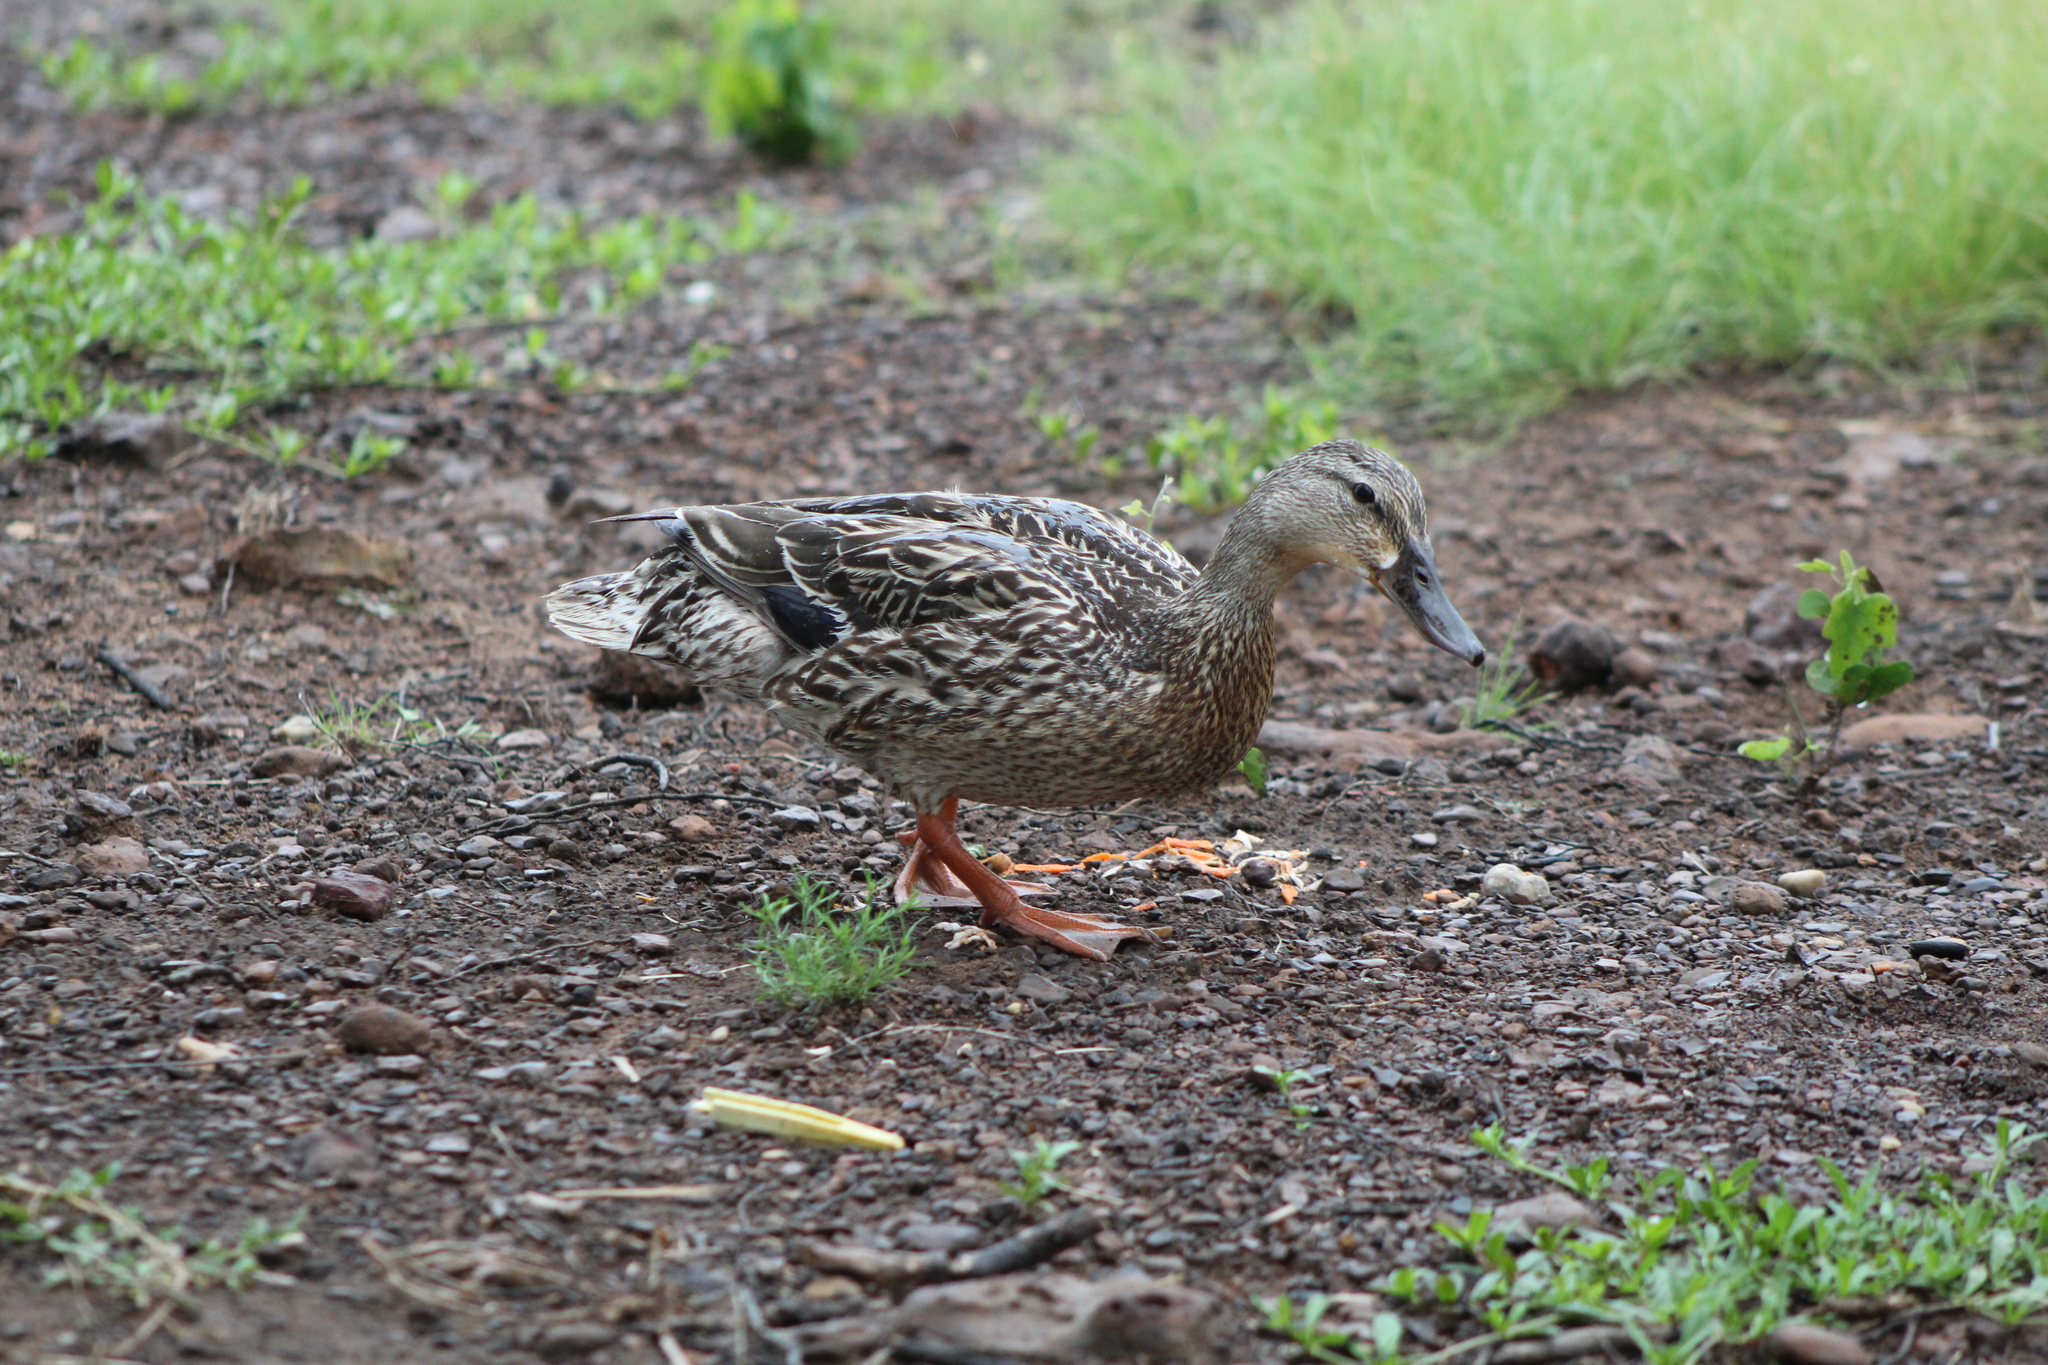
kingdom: Animalia
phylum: Chordata
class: Aves
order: Anseriformes
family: Anatidae
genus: Anas
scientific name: Anas platyrhynchos
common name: Mallard
